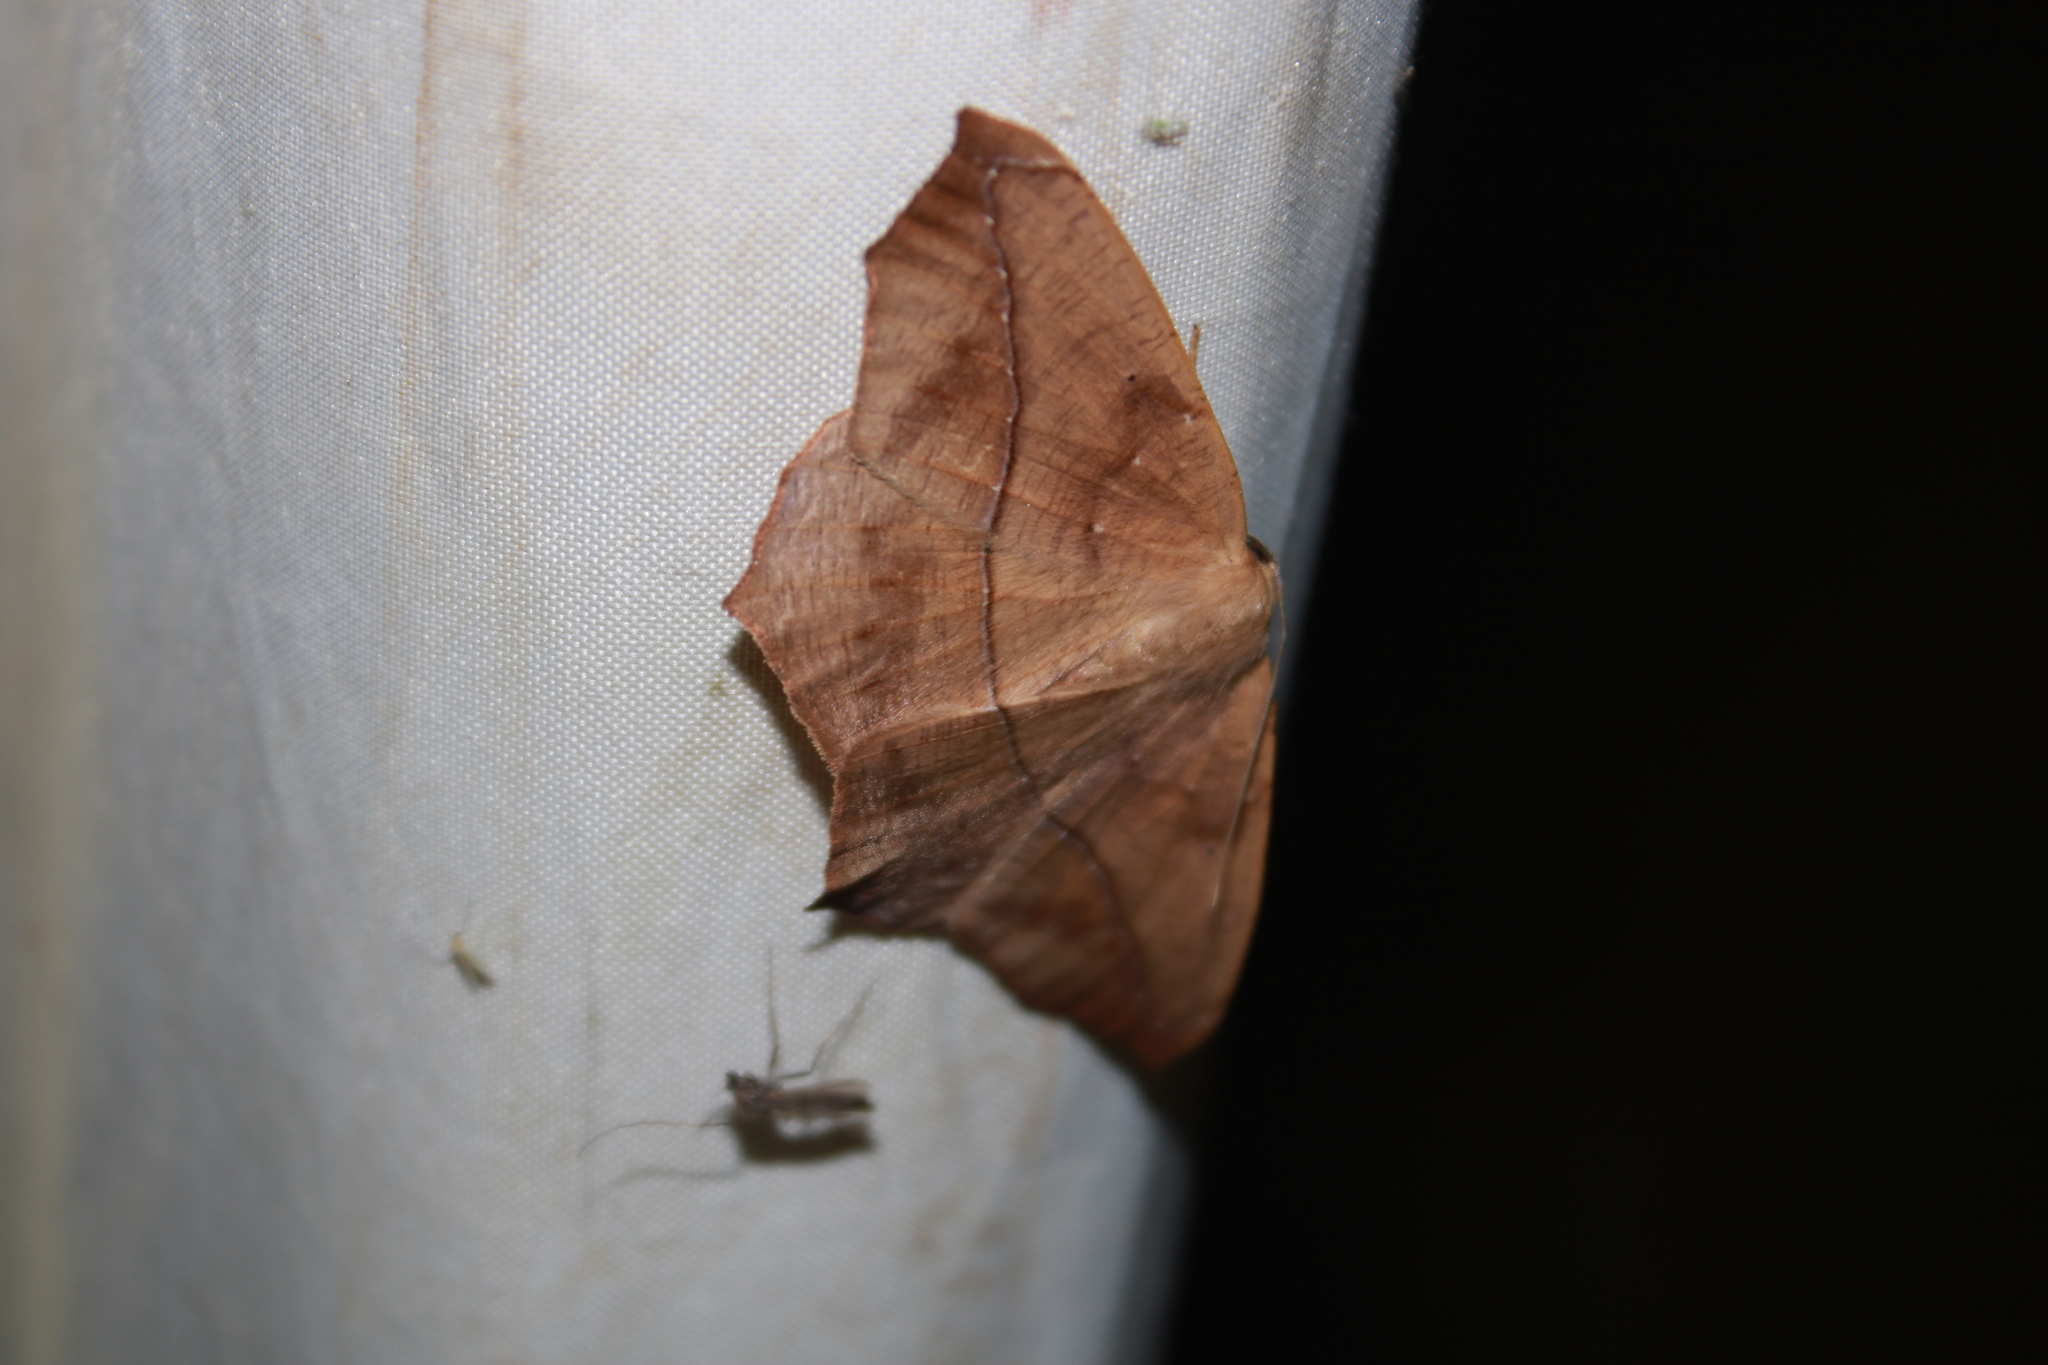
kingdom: Animalia
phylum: Arthropoda
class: Insecta
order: Lepidoptera
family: Geometridae
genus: Prochoerodes
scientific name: Prochoerodes lineola
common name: Large maple spanworm
